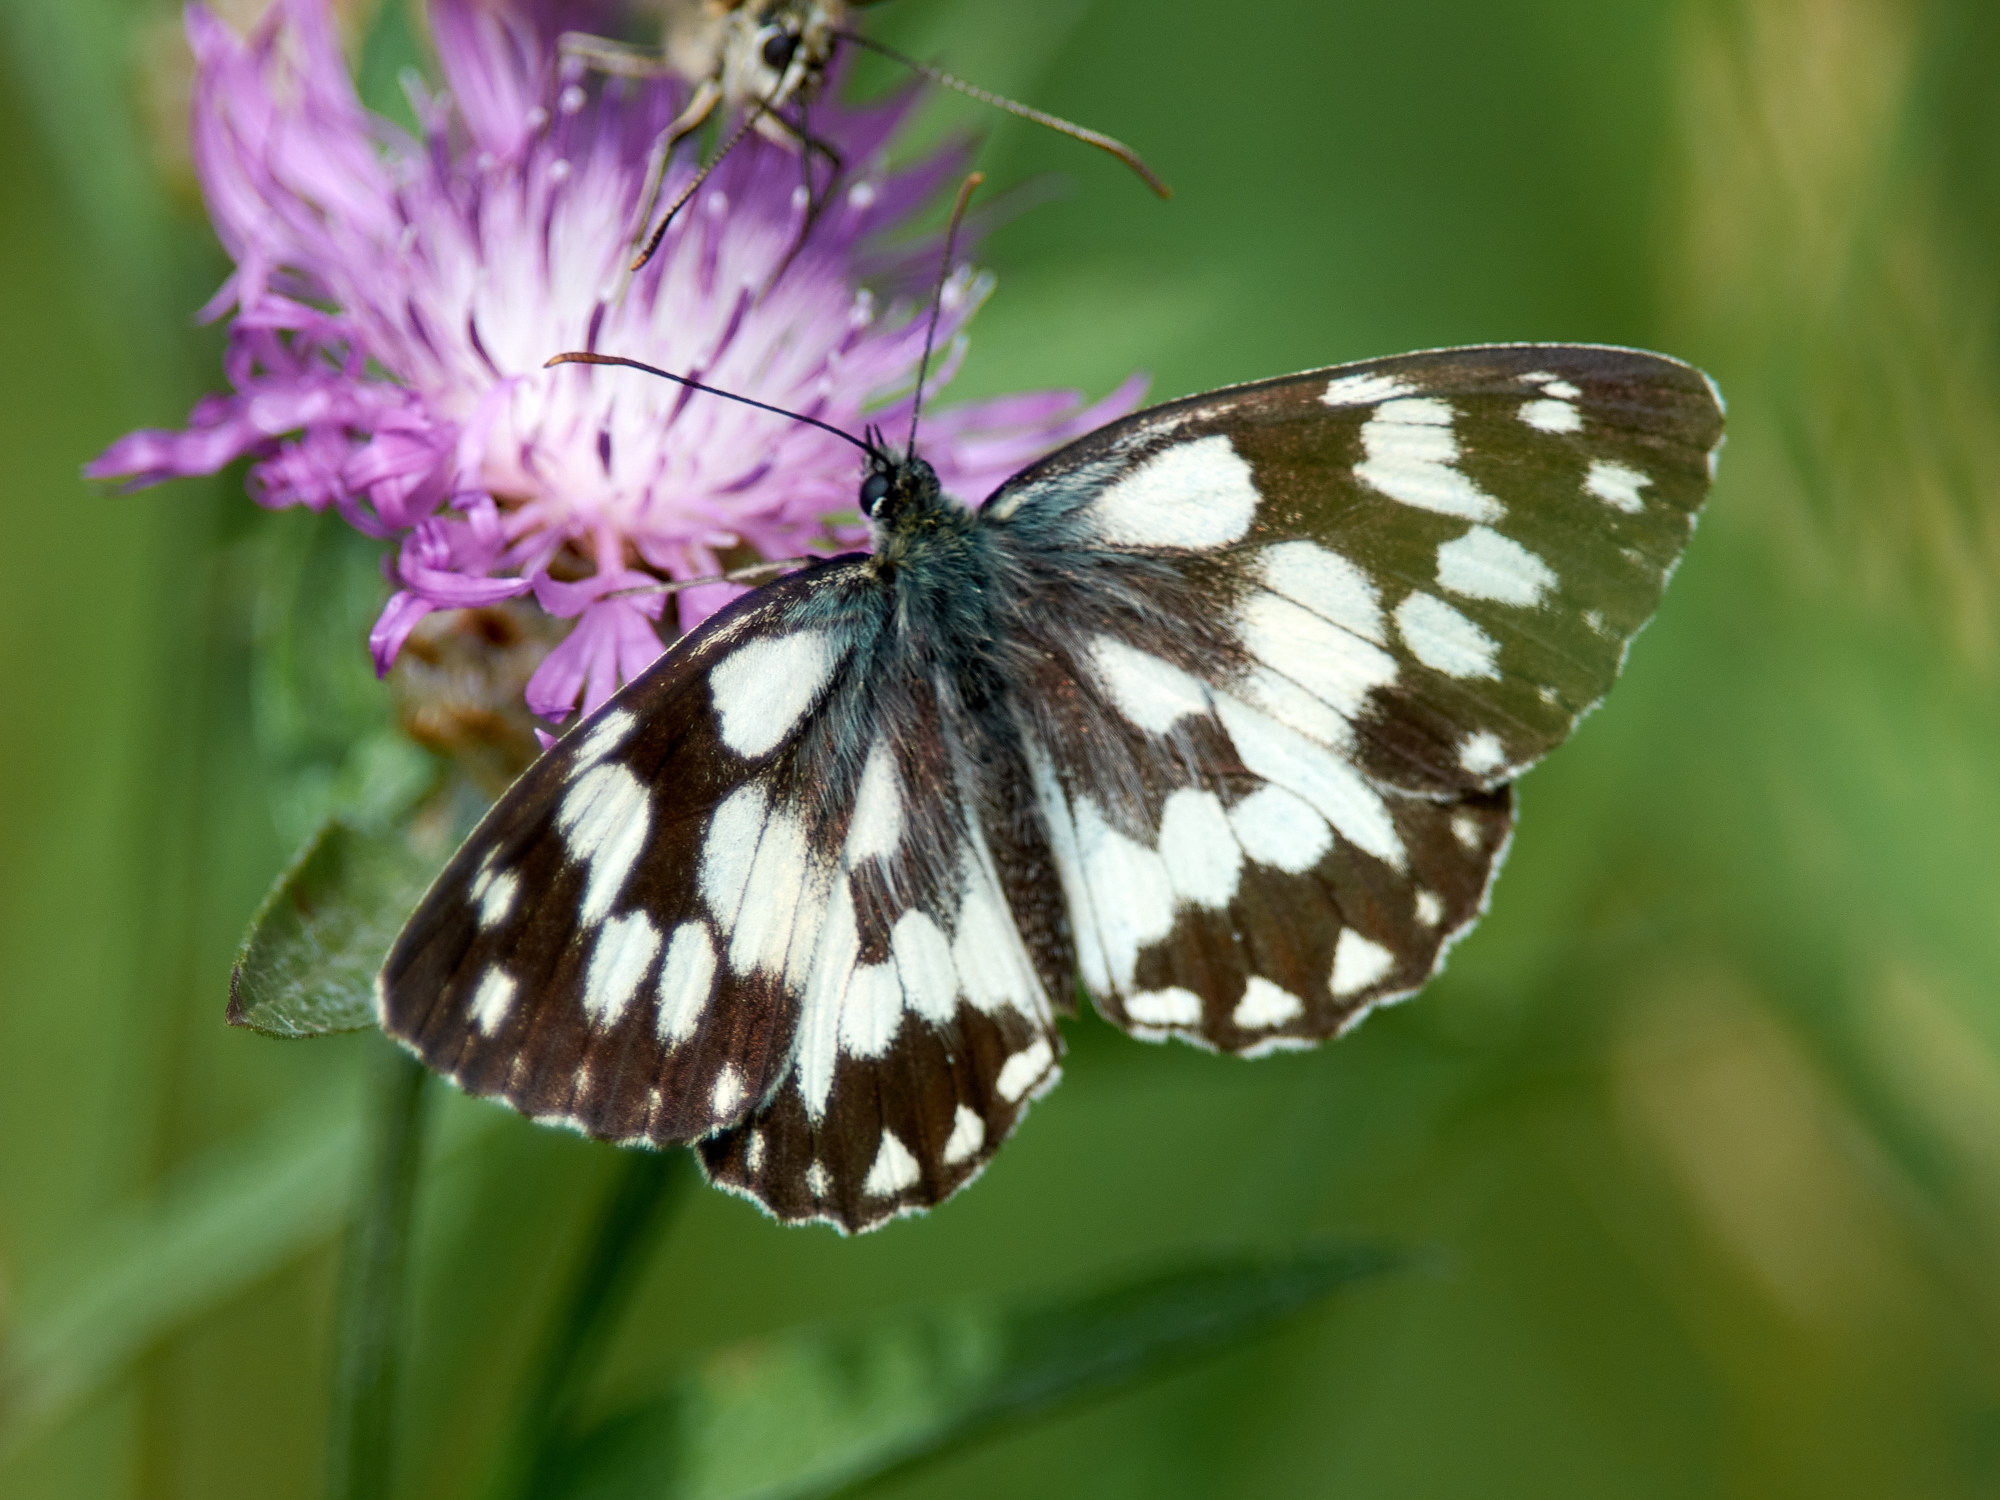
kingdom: Animalia
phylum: Arthropoda
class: Insecta
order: Lepidoptera
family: Nymphalidae
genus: Melanargia
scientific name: Melanargia galathea
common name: Marbled white
